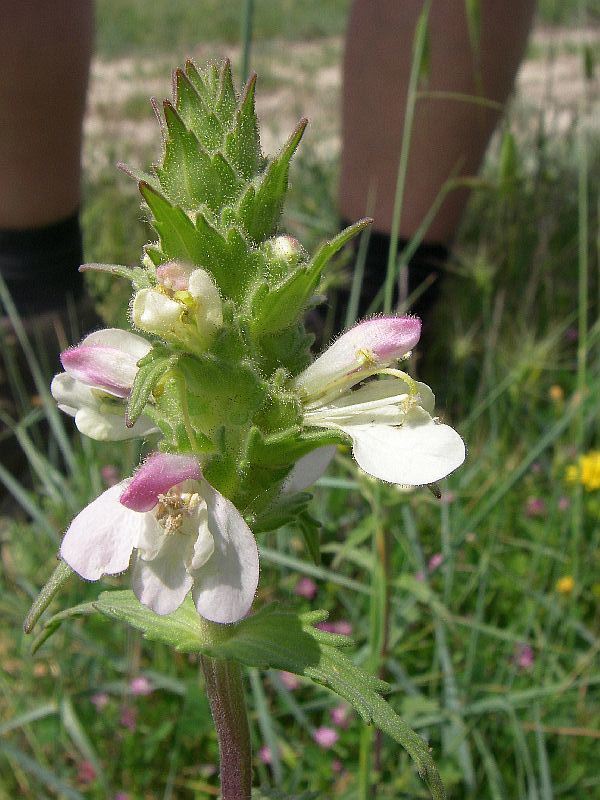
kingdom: Plantae
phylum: Tracheophyta
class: Magnoliopsida
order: Lamiales
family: Orobanchaceae
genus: Bellardia
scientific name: Bellardia trixago
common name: Mediterranean lineseed
